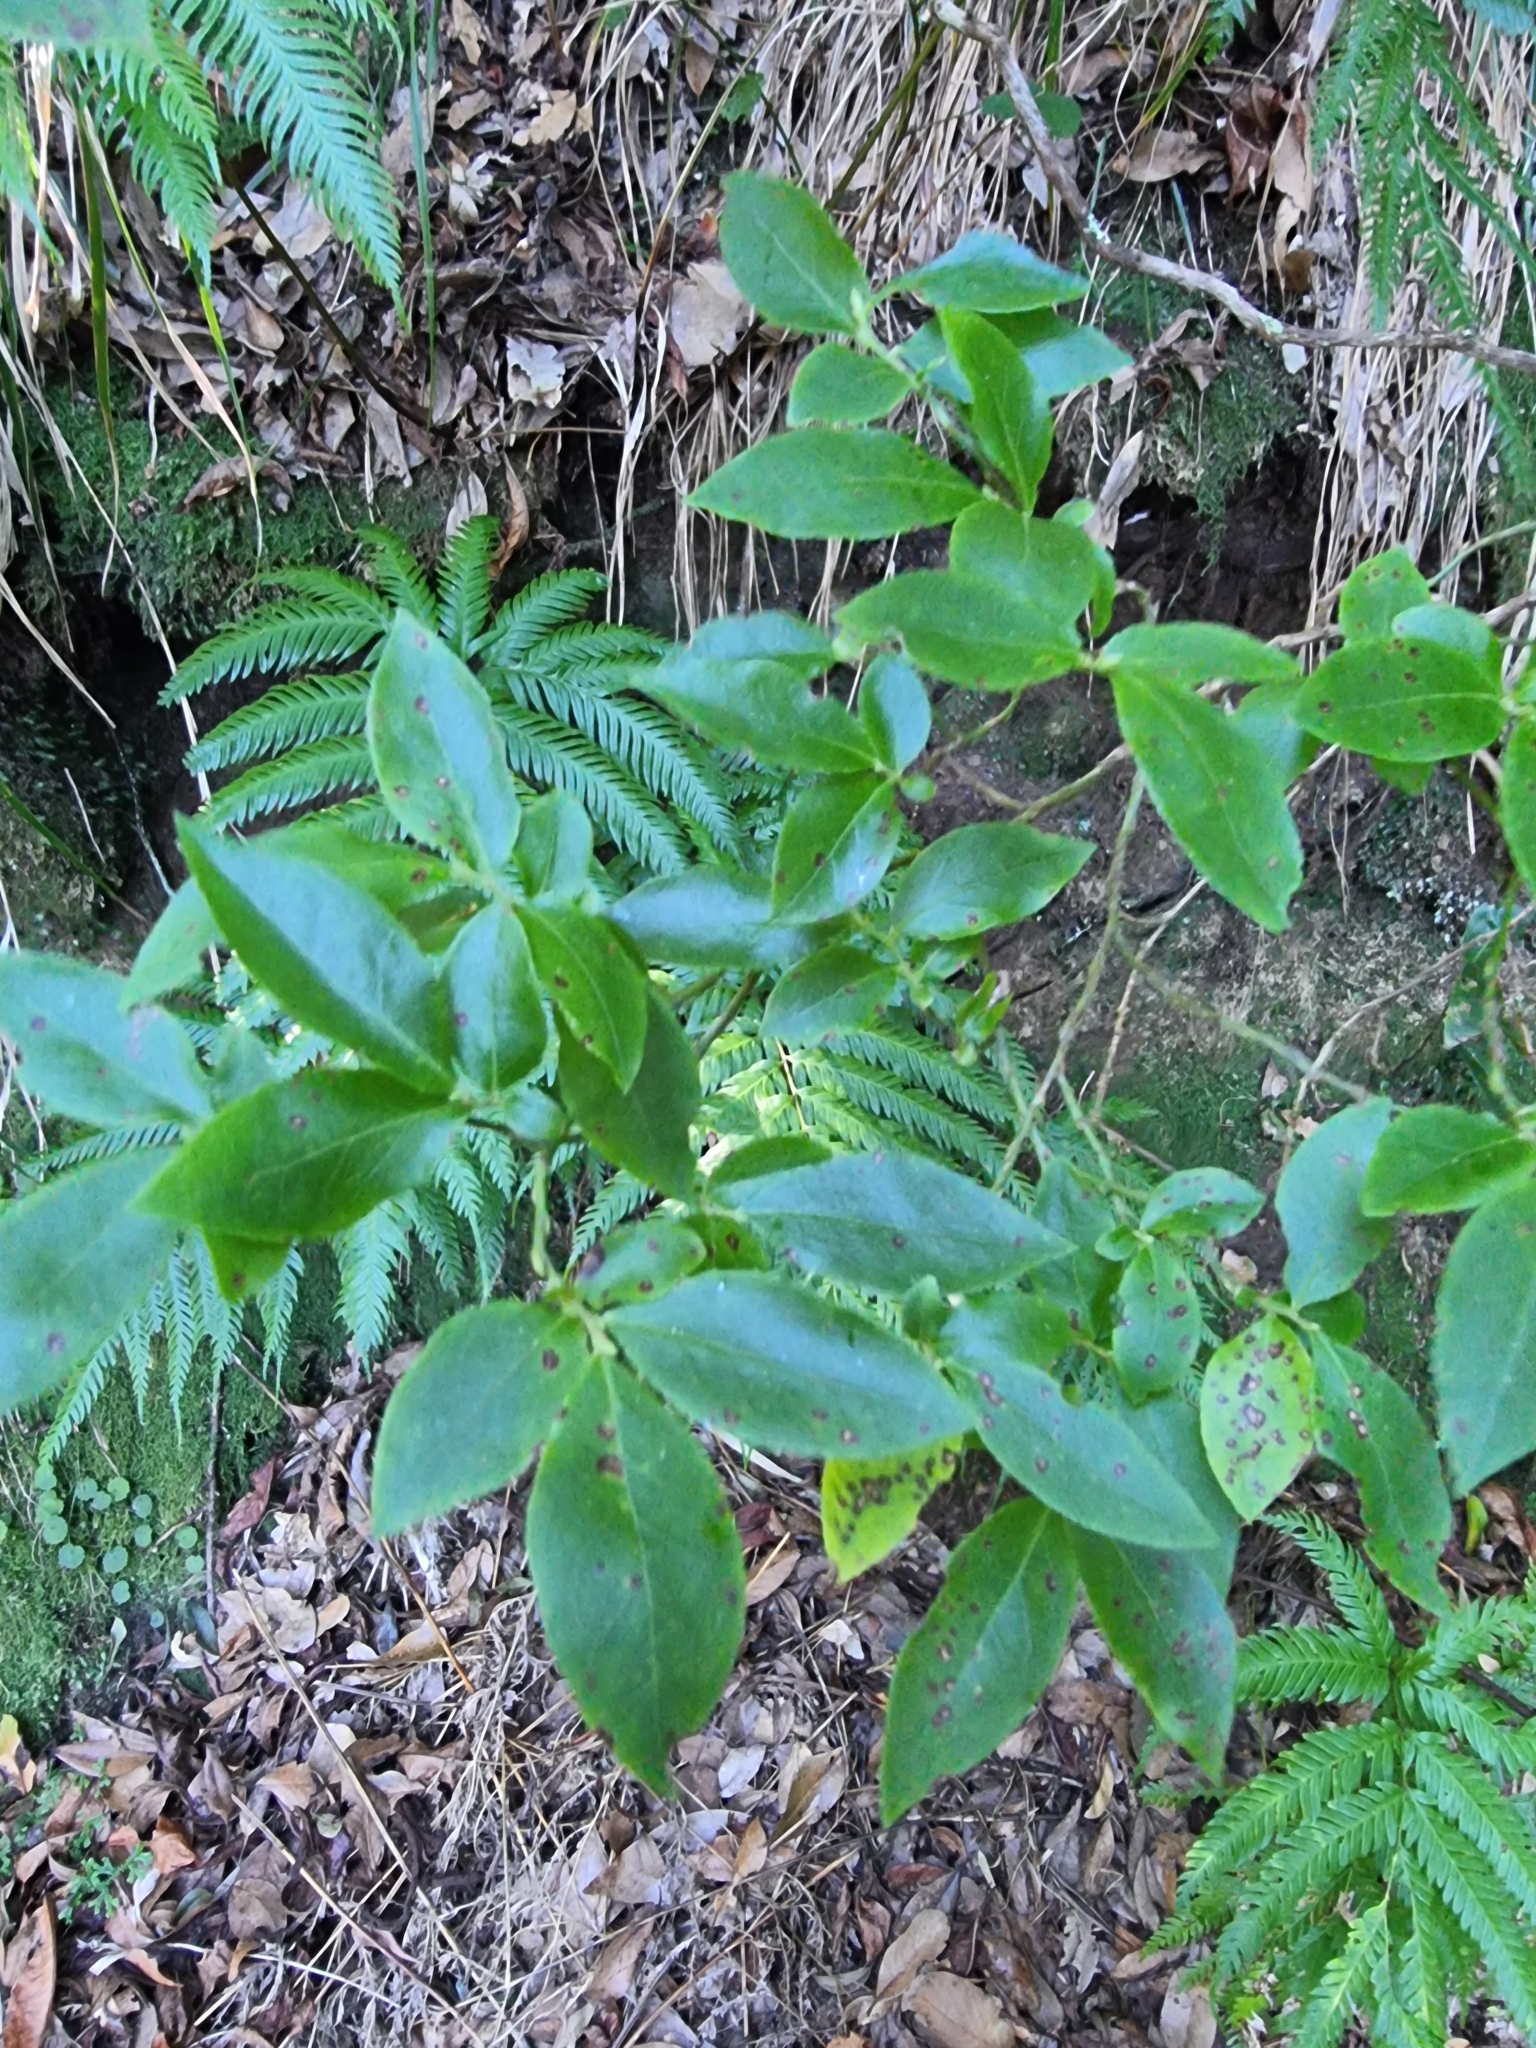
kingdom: Plantae
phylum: Tracheophyta
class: Magnoliopsida
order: Ericales
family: Ericaceae
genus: Vaccinium
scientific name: Vaccinium padifolium
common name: Madeiran blueberry
